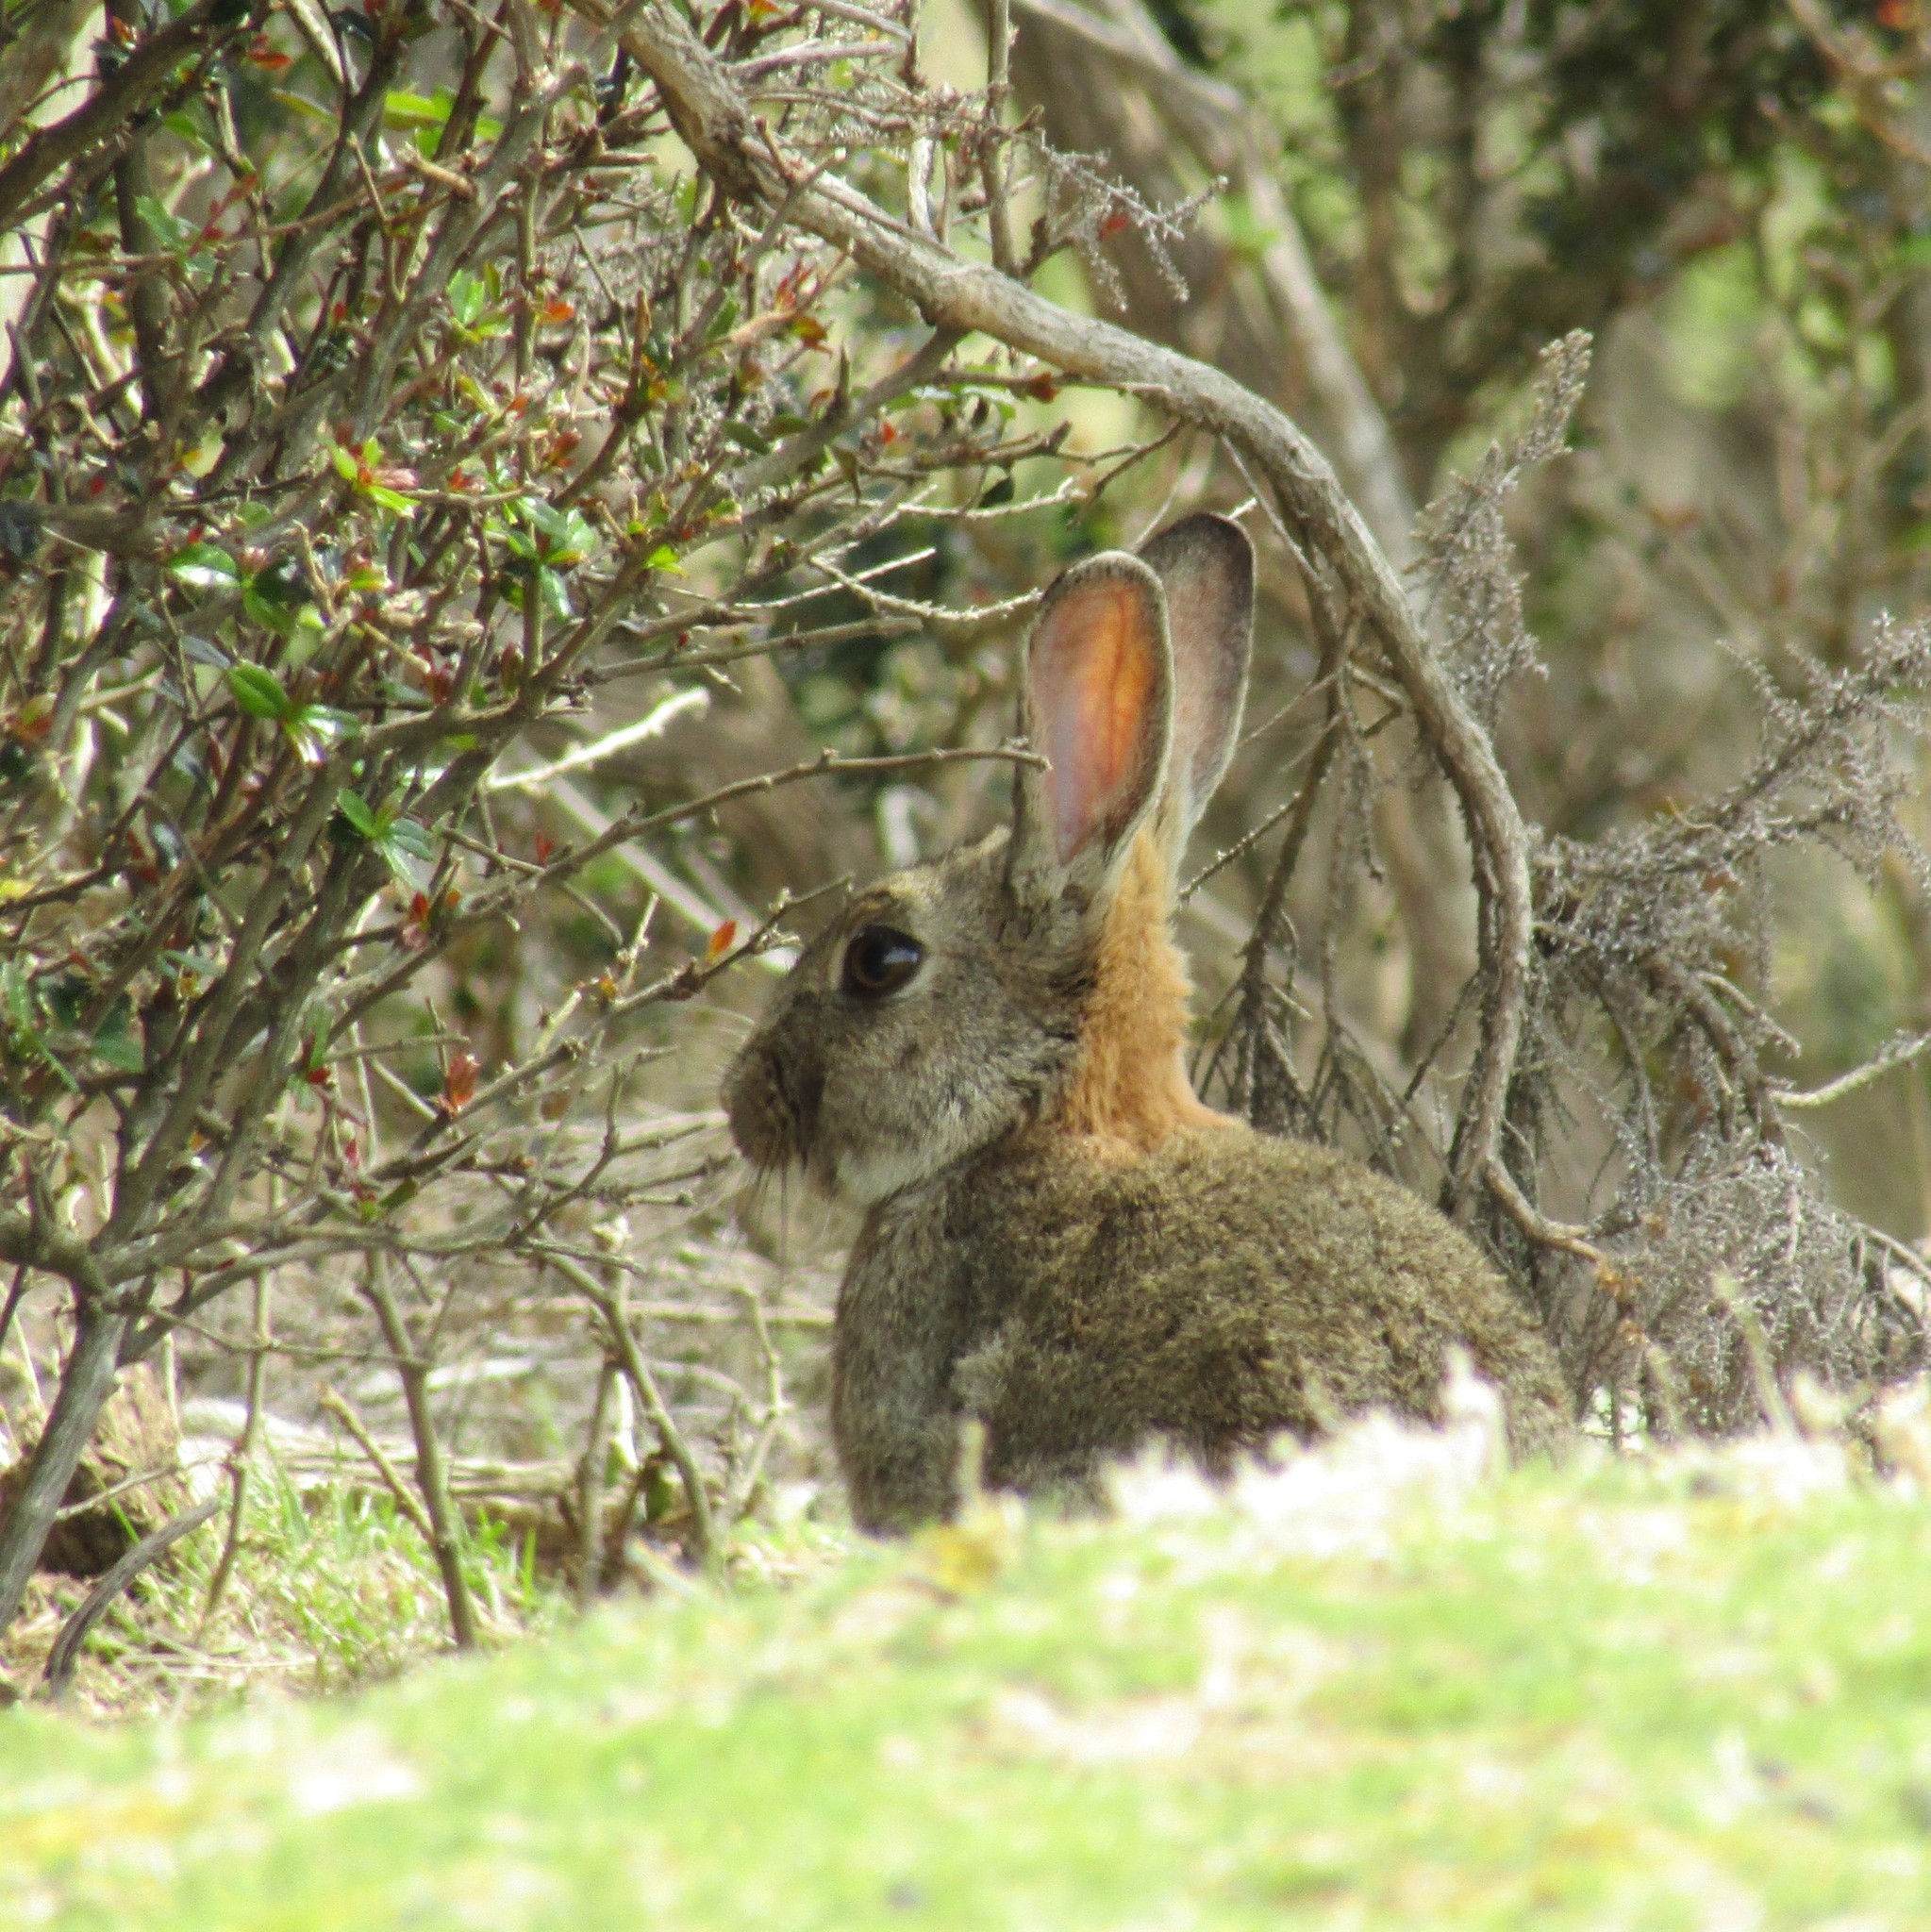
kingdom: Animalia
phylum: Chordata
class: Mammalia
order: Lagomorpha
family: Leporidae
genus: Oryctolagus
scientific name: Oryctolagus cuniculus
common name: European rabbit
